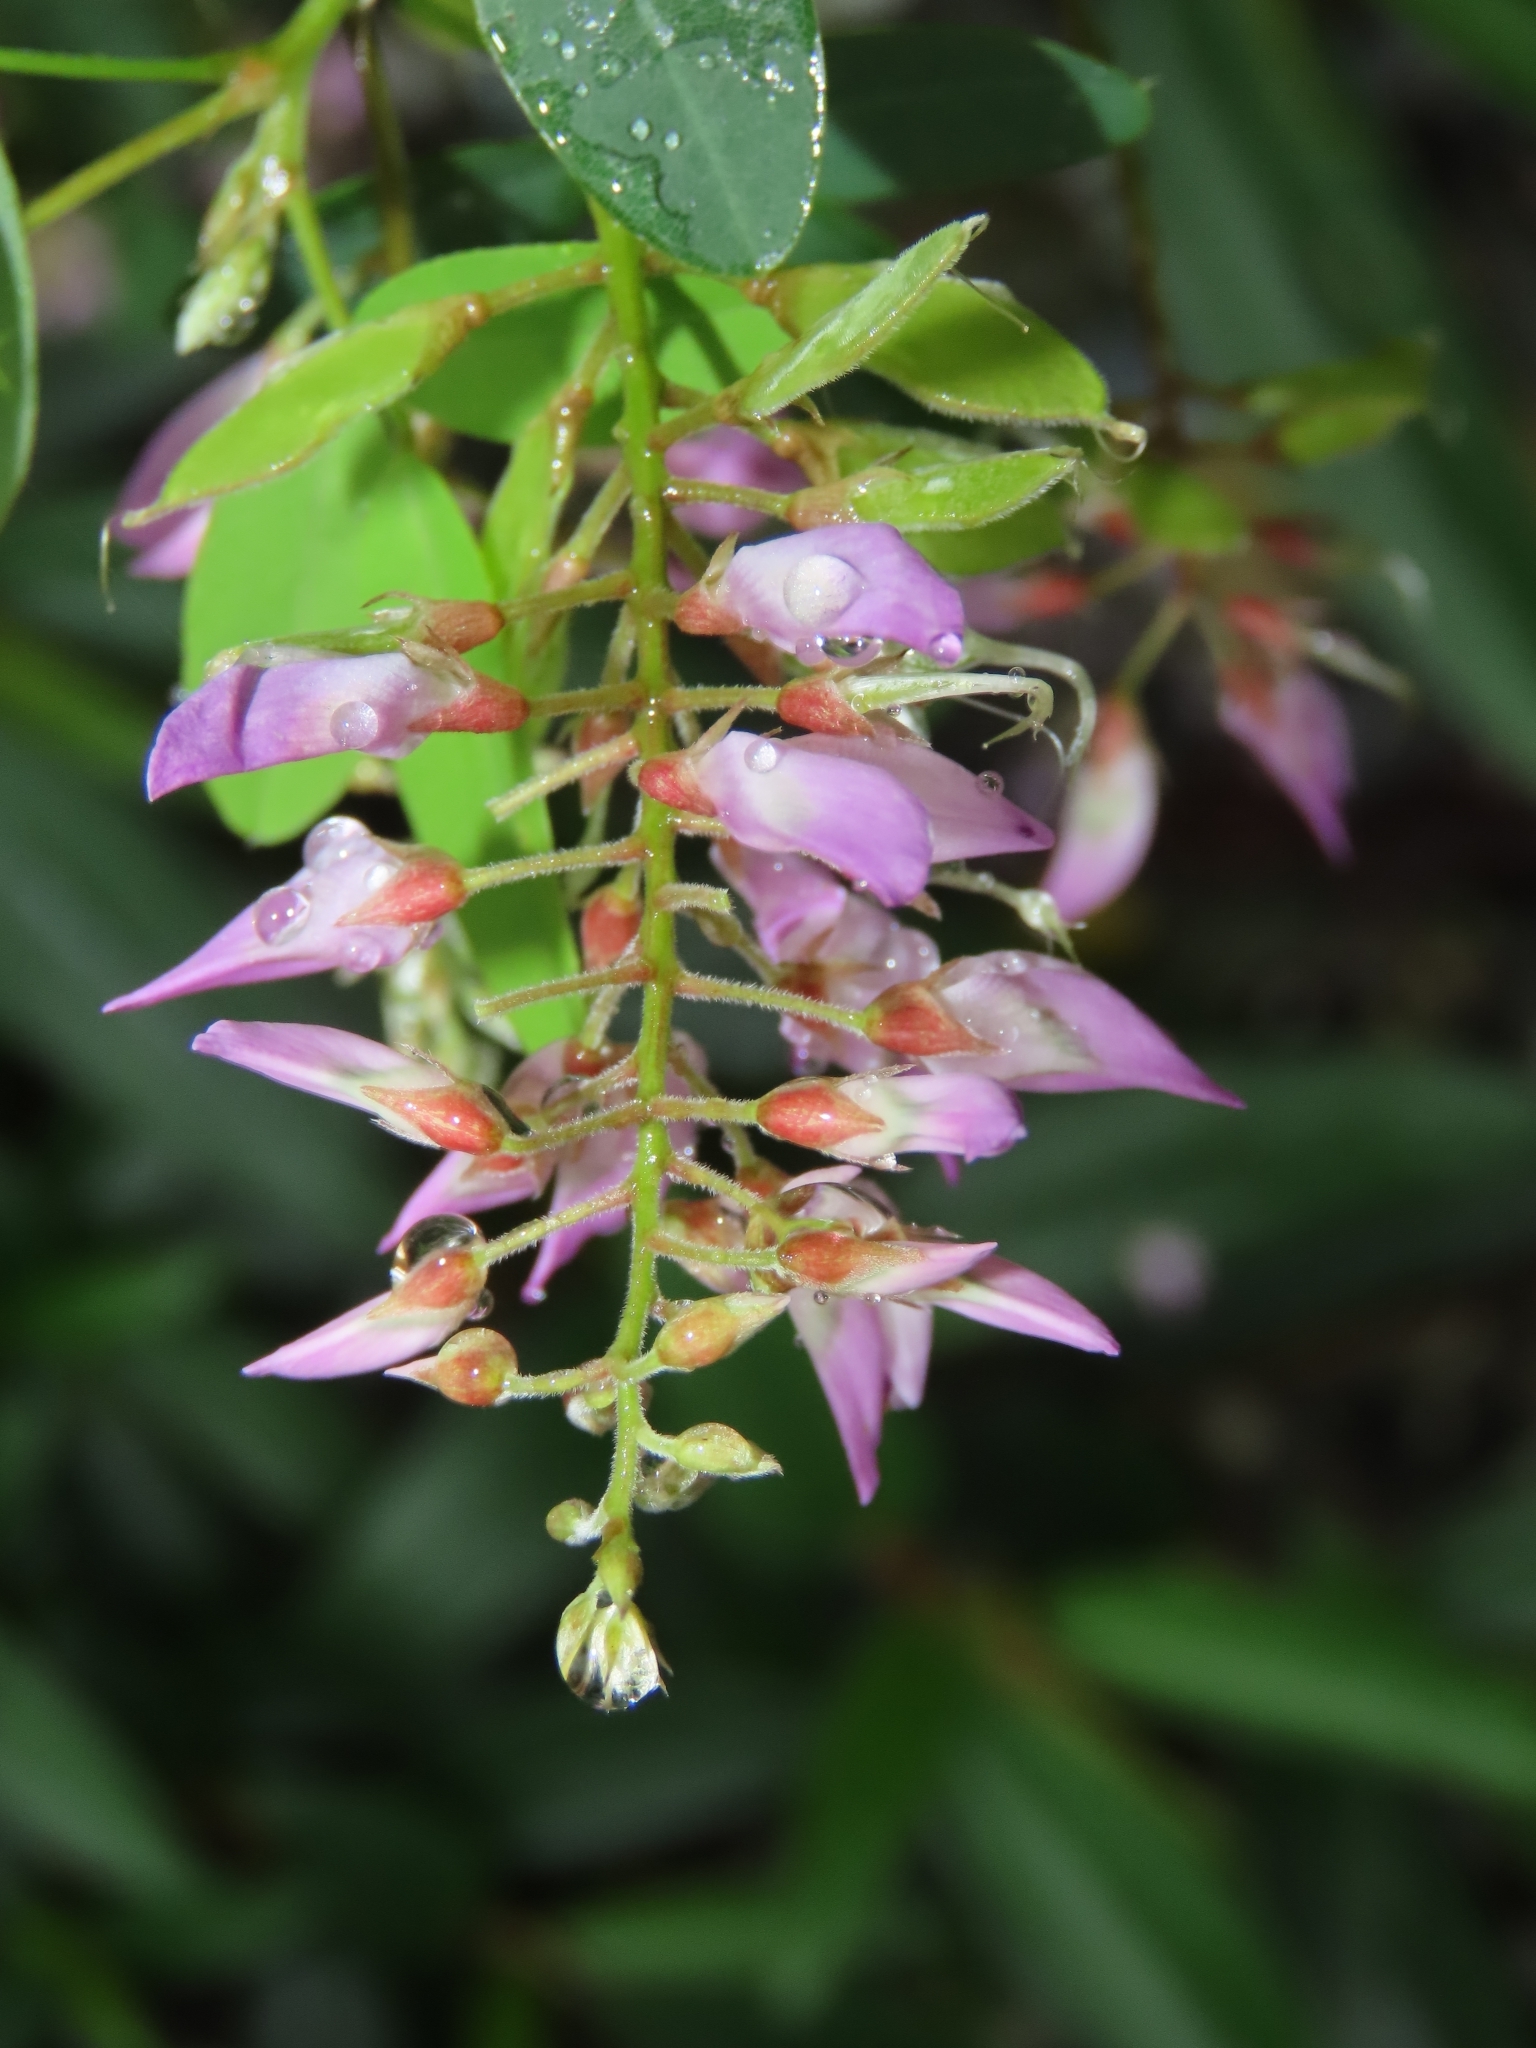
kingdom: Plantae
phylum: Tracheophyta
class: Magnoliopsida
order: Fabales
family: Fabaceae
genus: Grona
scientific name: Grona heterocarpos
